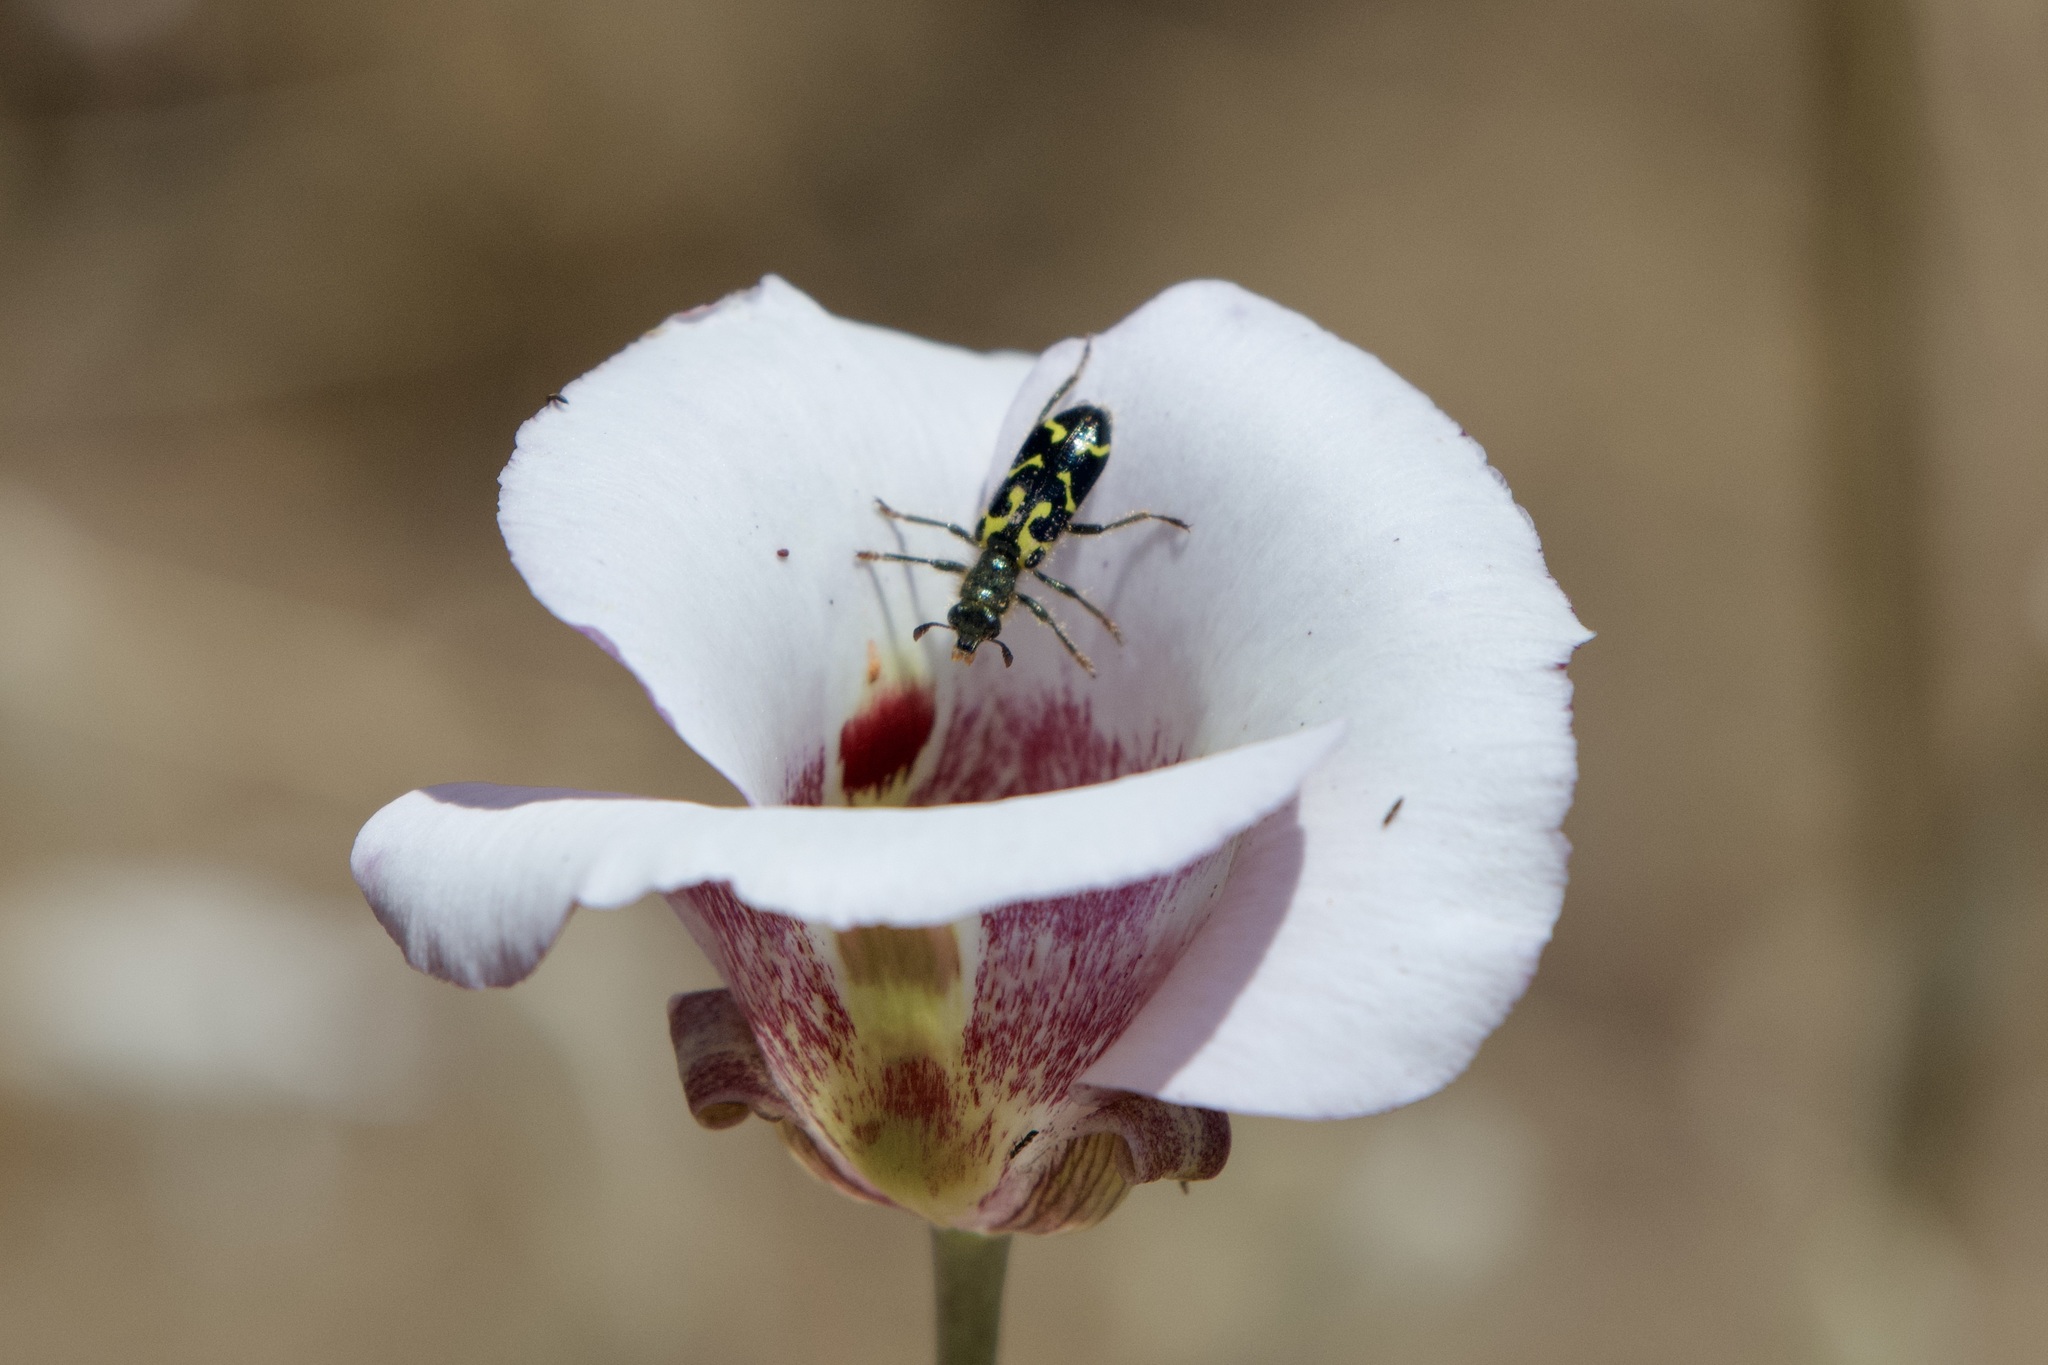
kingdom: Animalia
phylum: Arthropoda
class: Insecta
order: Coleoptera
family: Cleridae
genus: Trichodes
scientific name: Trichodes ornatus
